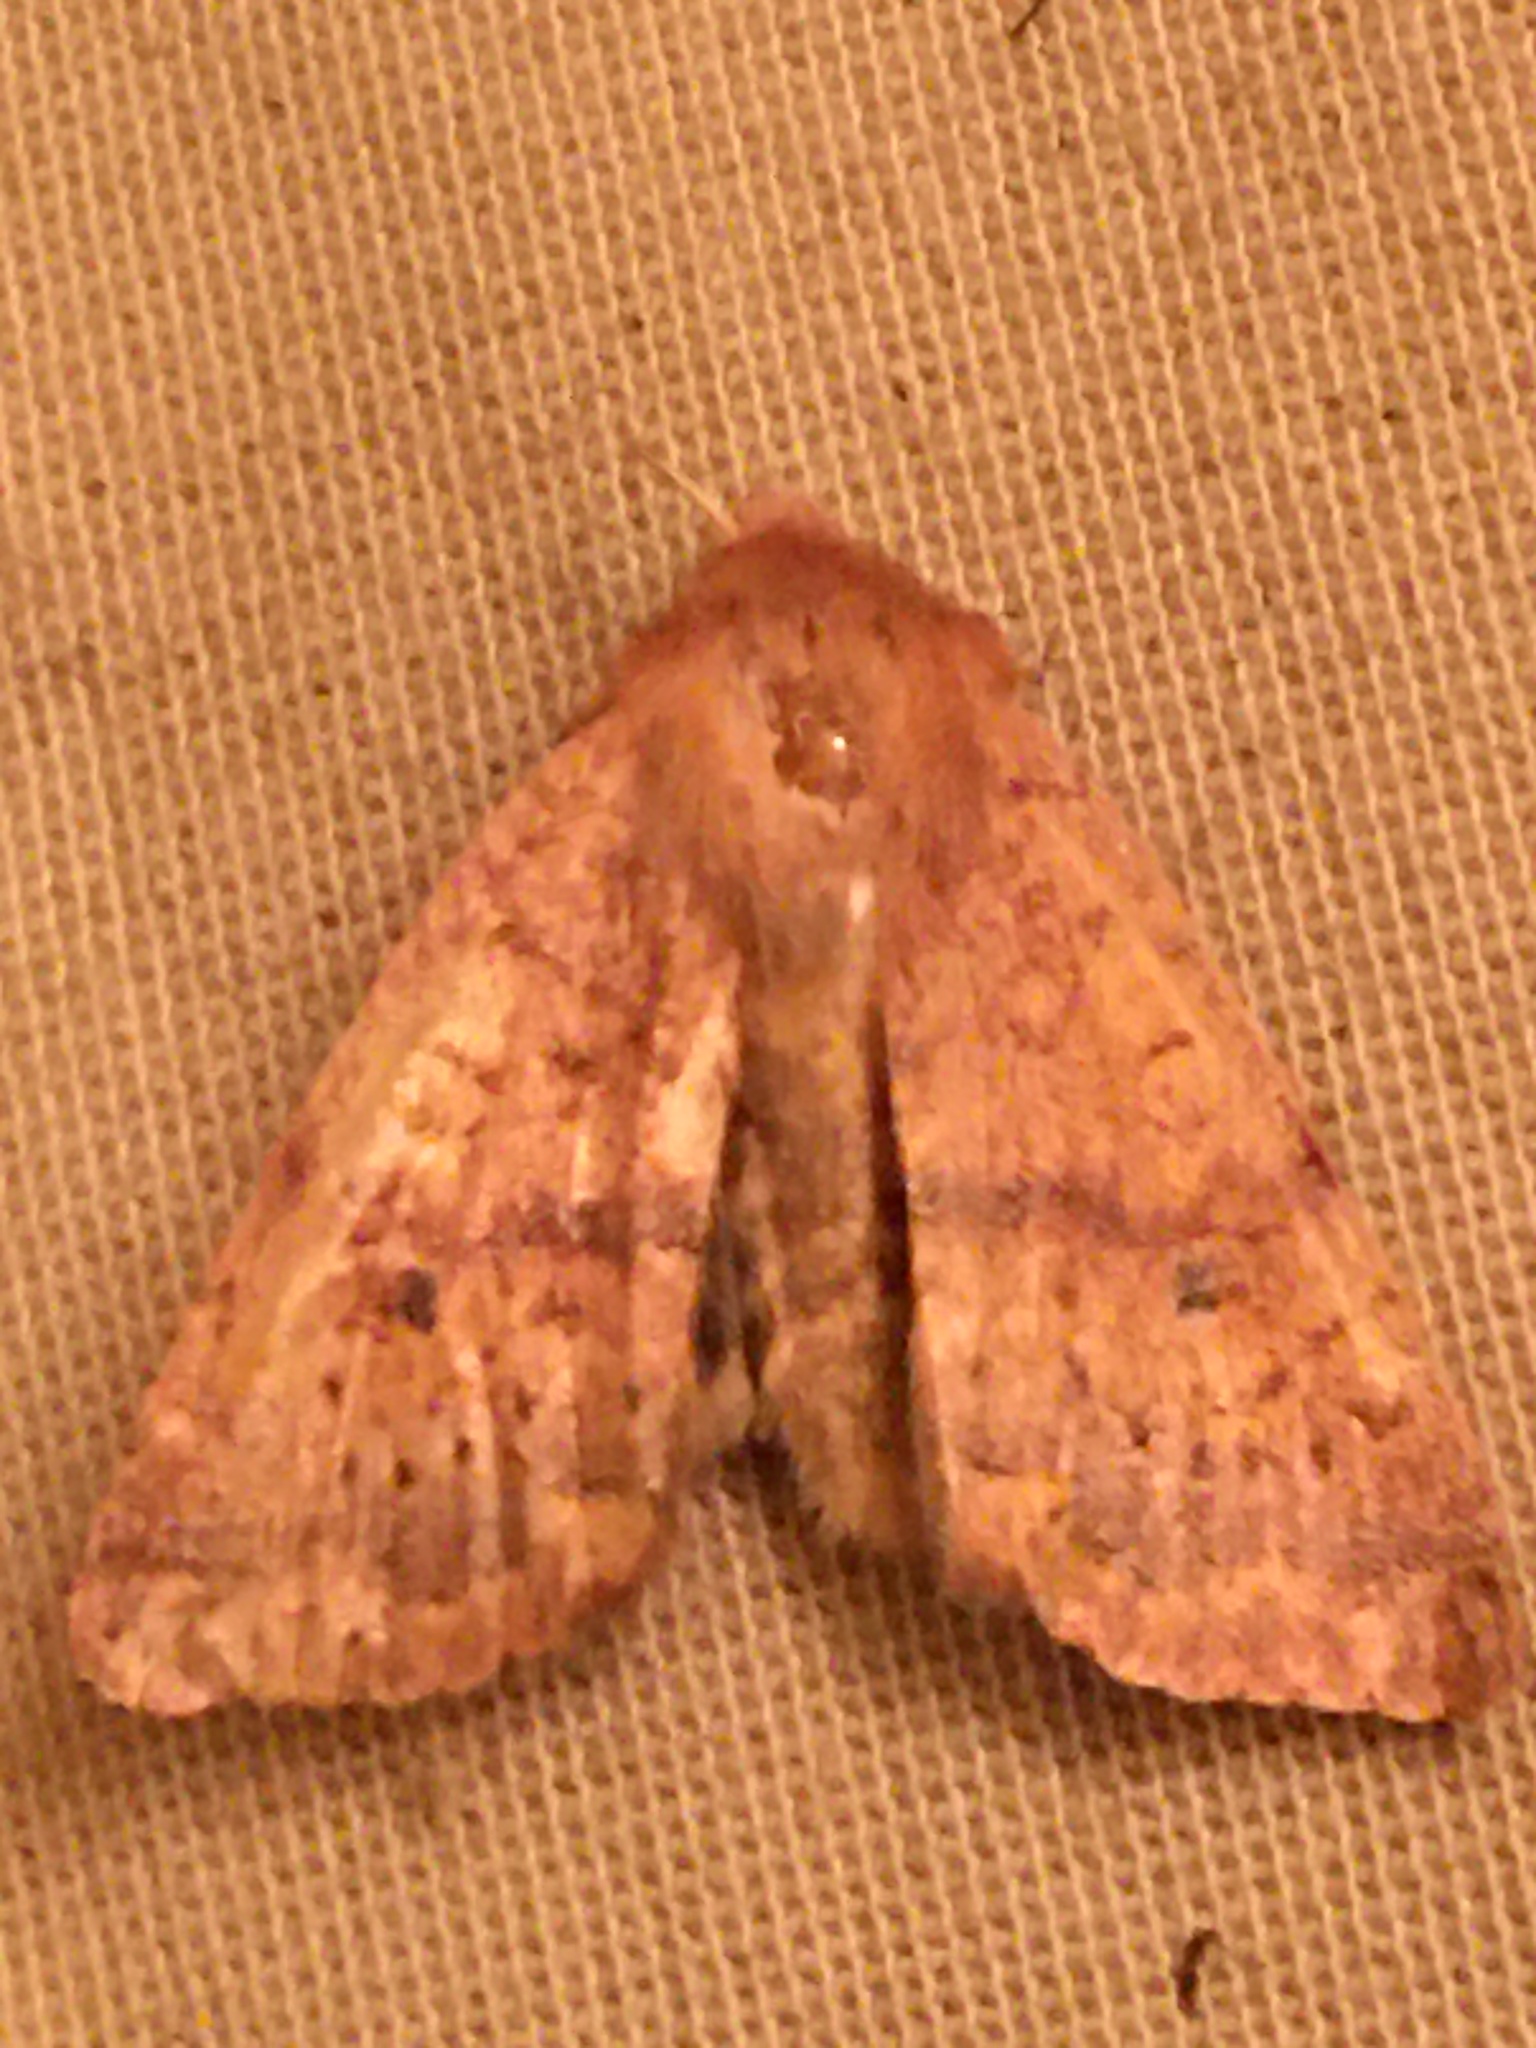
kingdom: Animalia
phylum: Arthropoda
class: Insecta
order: Lepidoptera
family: Noctuidae
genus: Agrochola
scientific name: Agrochola bicolorago
